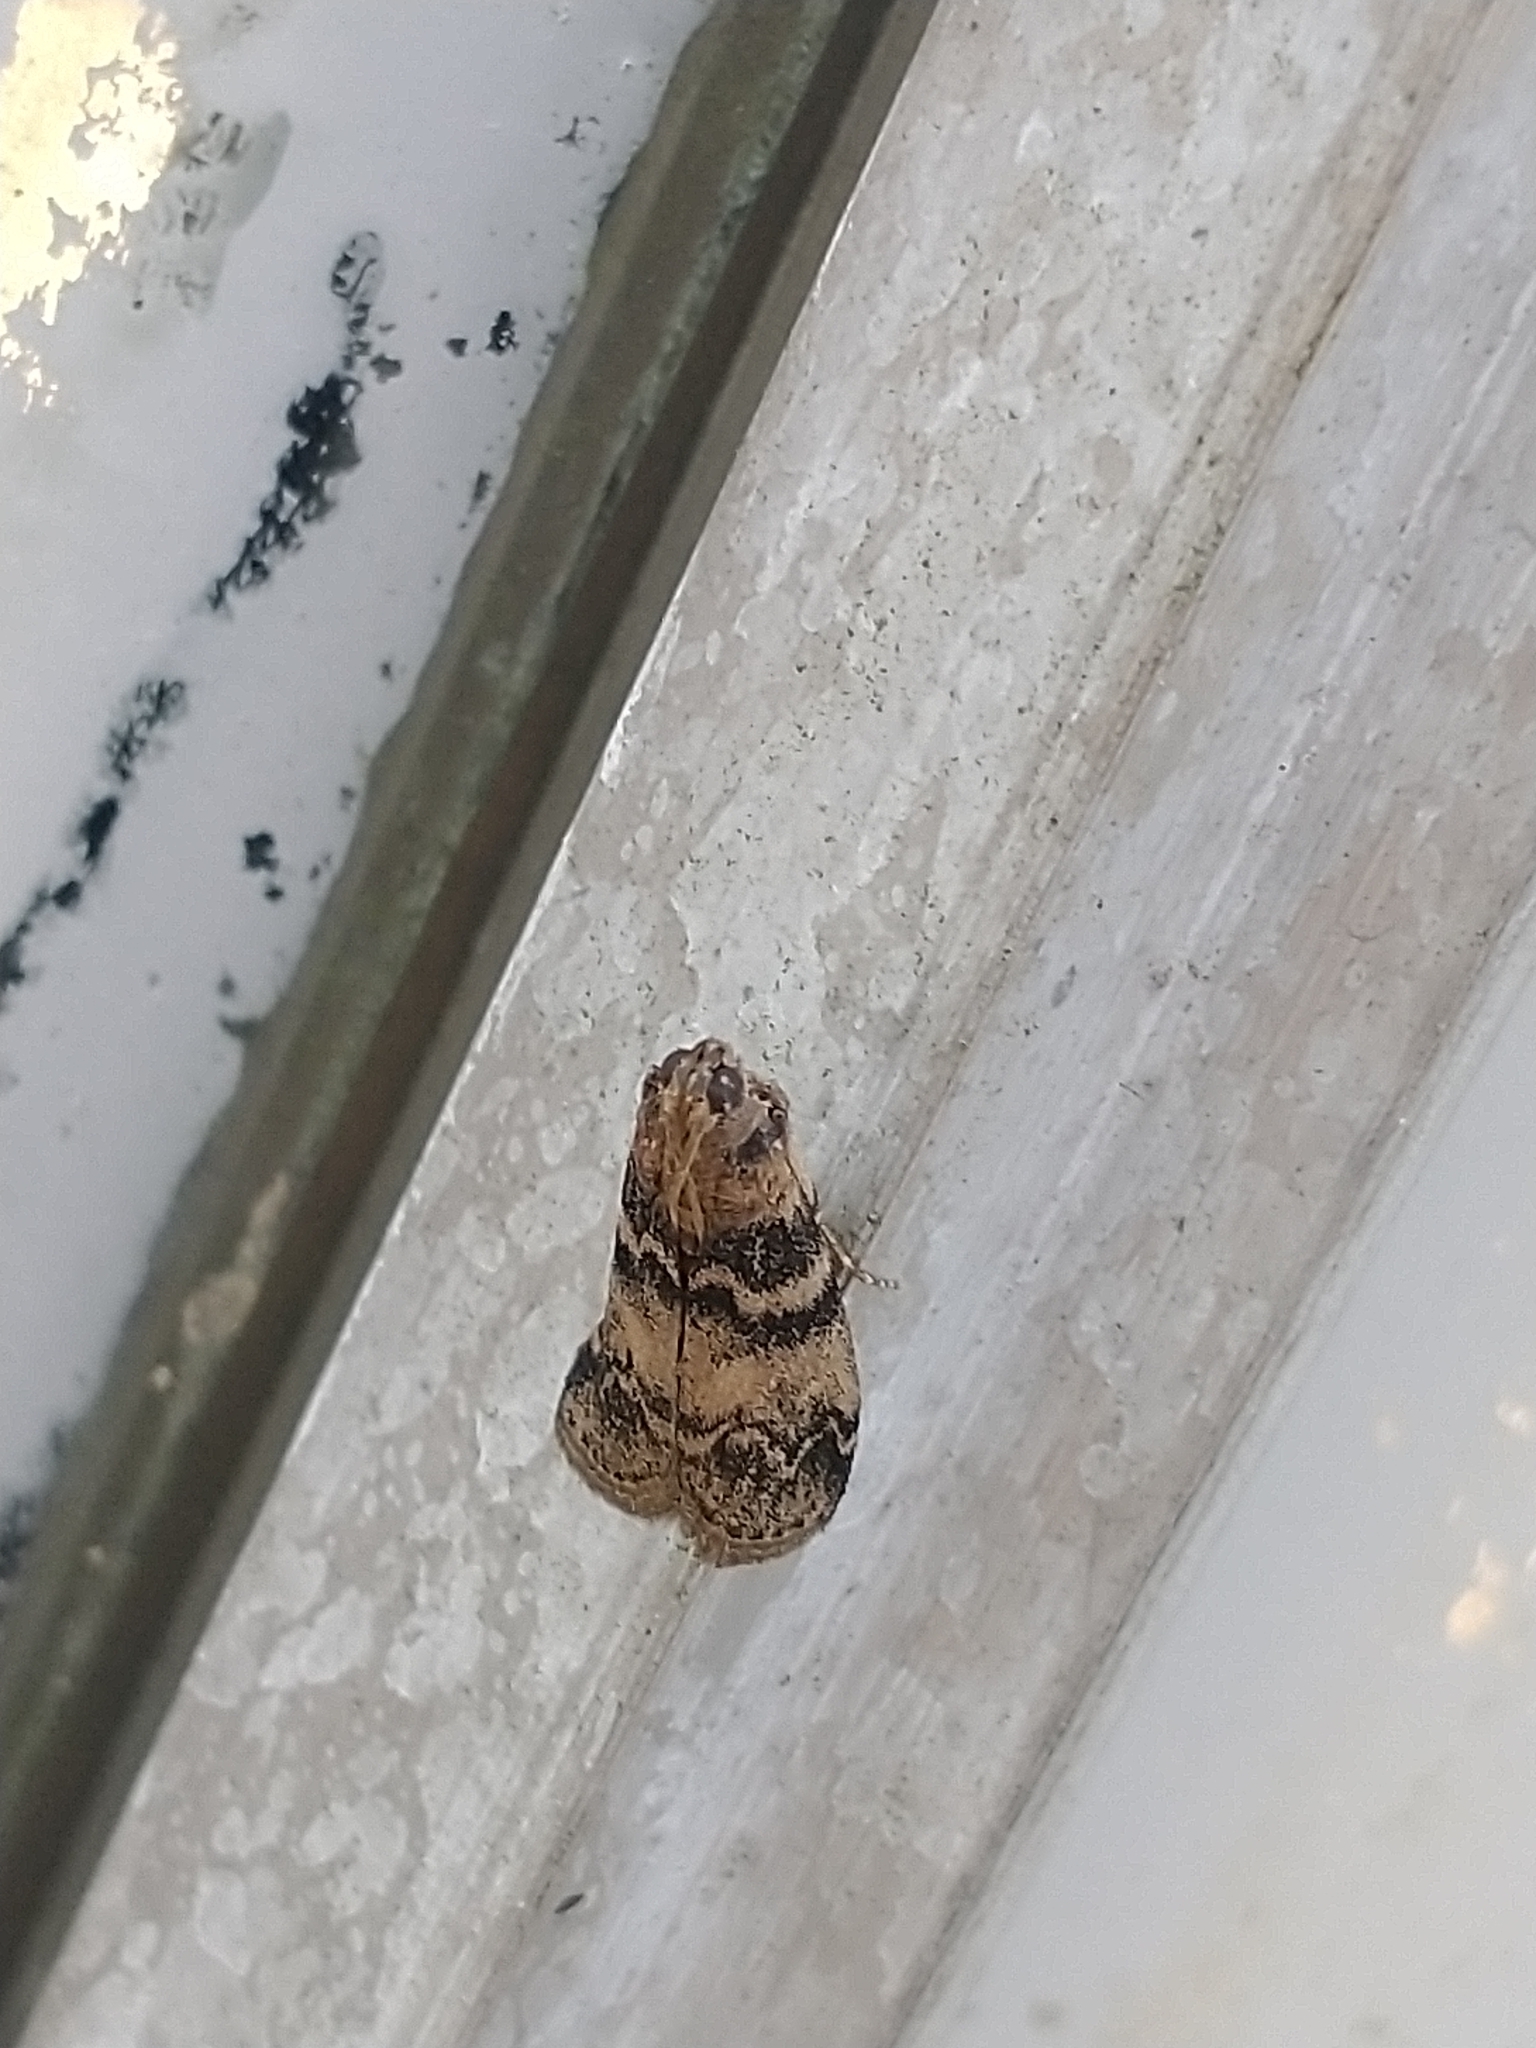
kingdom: Animalia
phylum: Arthropoda
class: Insecta
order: Lepidoptera
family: Pyralidae
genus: Euzophera
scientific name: Euzophera pinguis
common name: Ash-bark knot-horn
